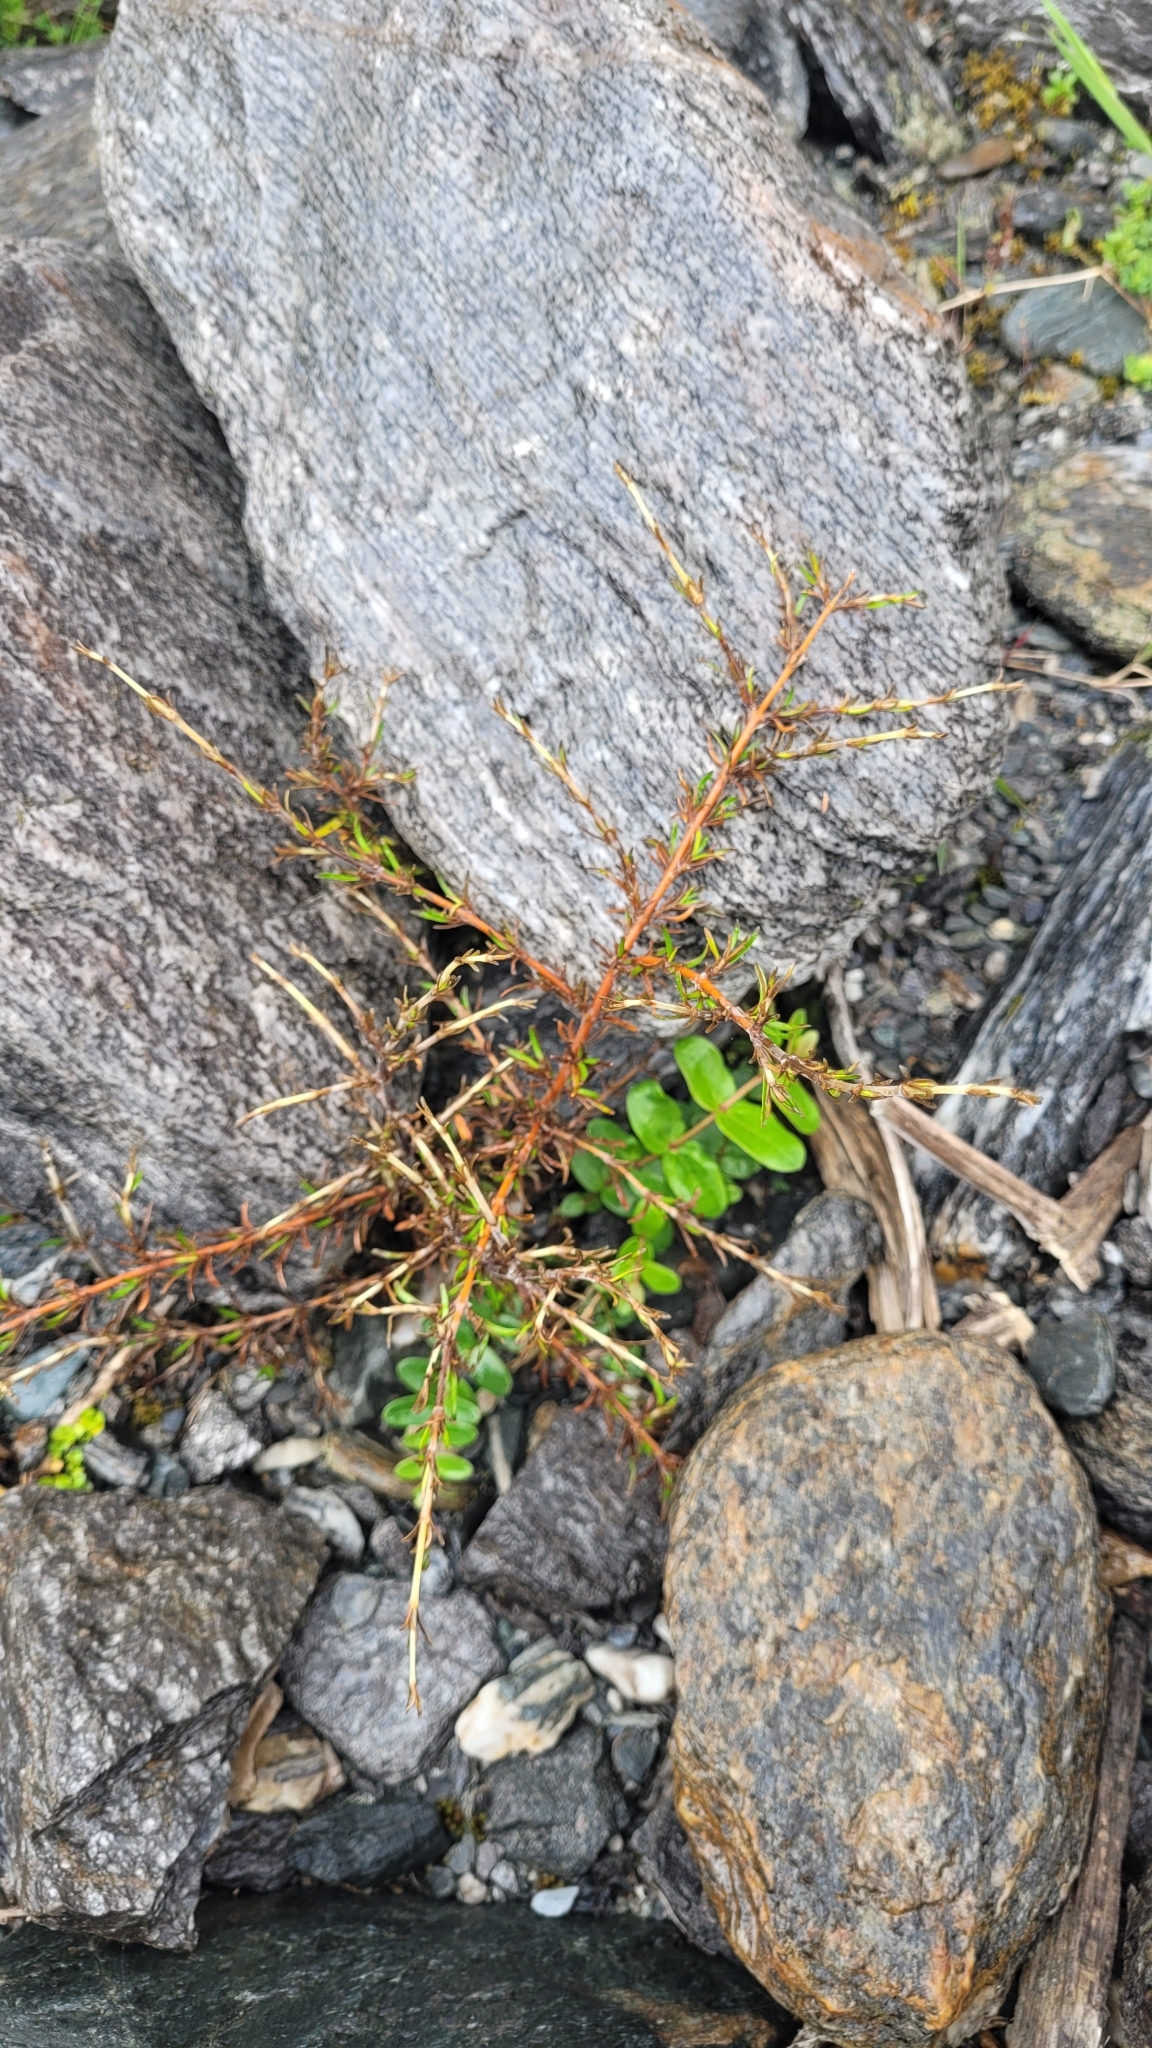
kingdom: Plantae
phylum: Tracheophyta
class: Magnoliopsida
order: Gentianales
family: Rubiaceae
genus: Coprosma
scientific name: Coprosma rugosa
